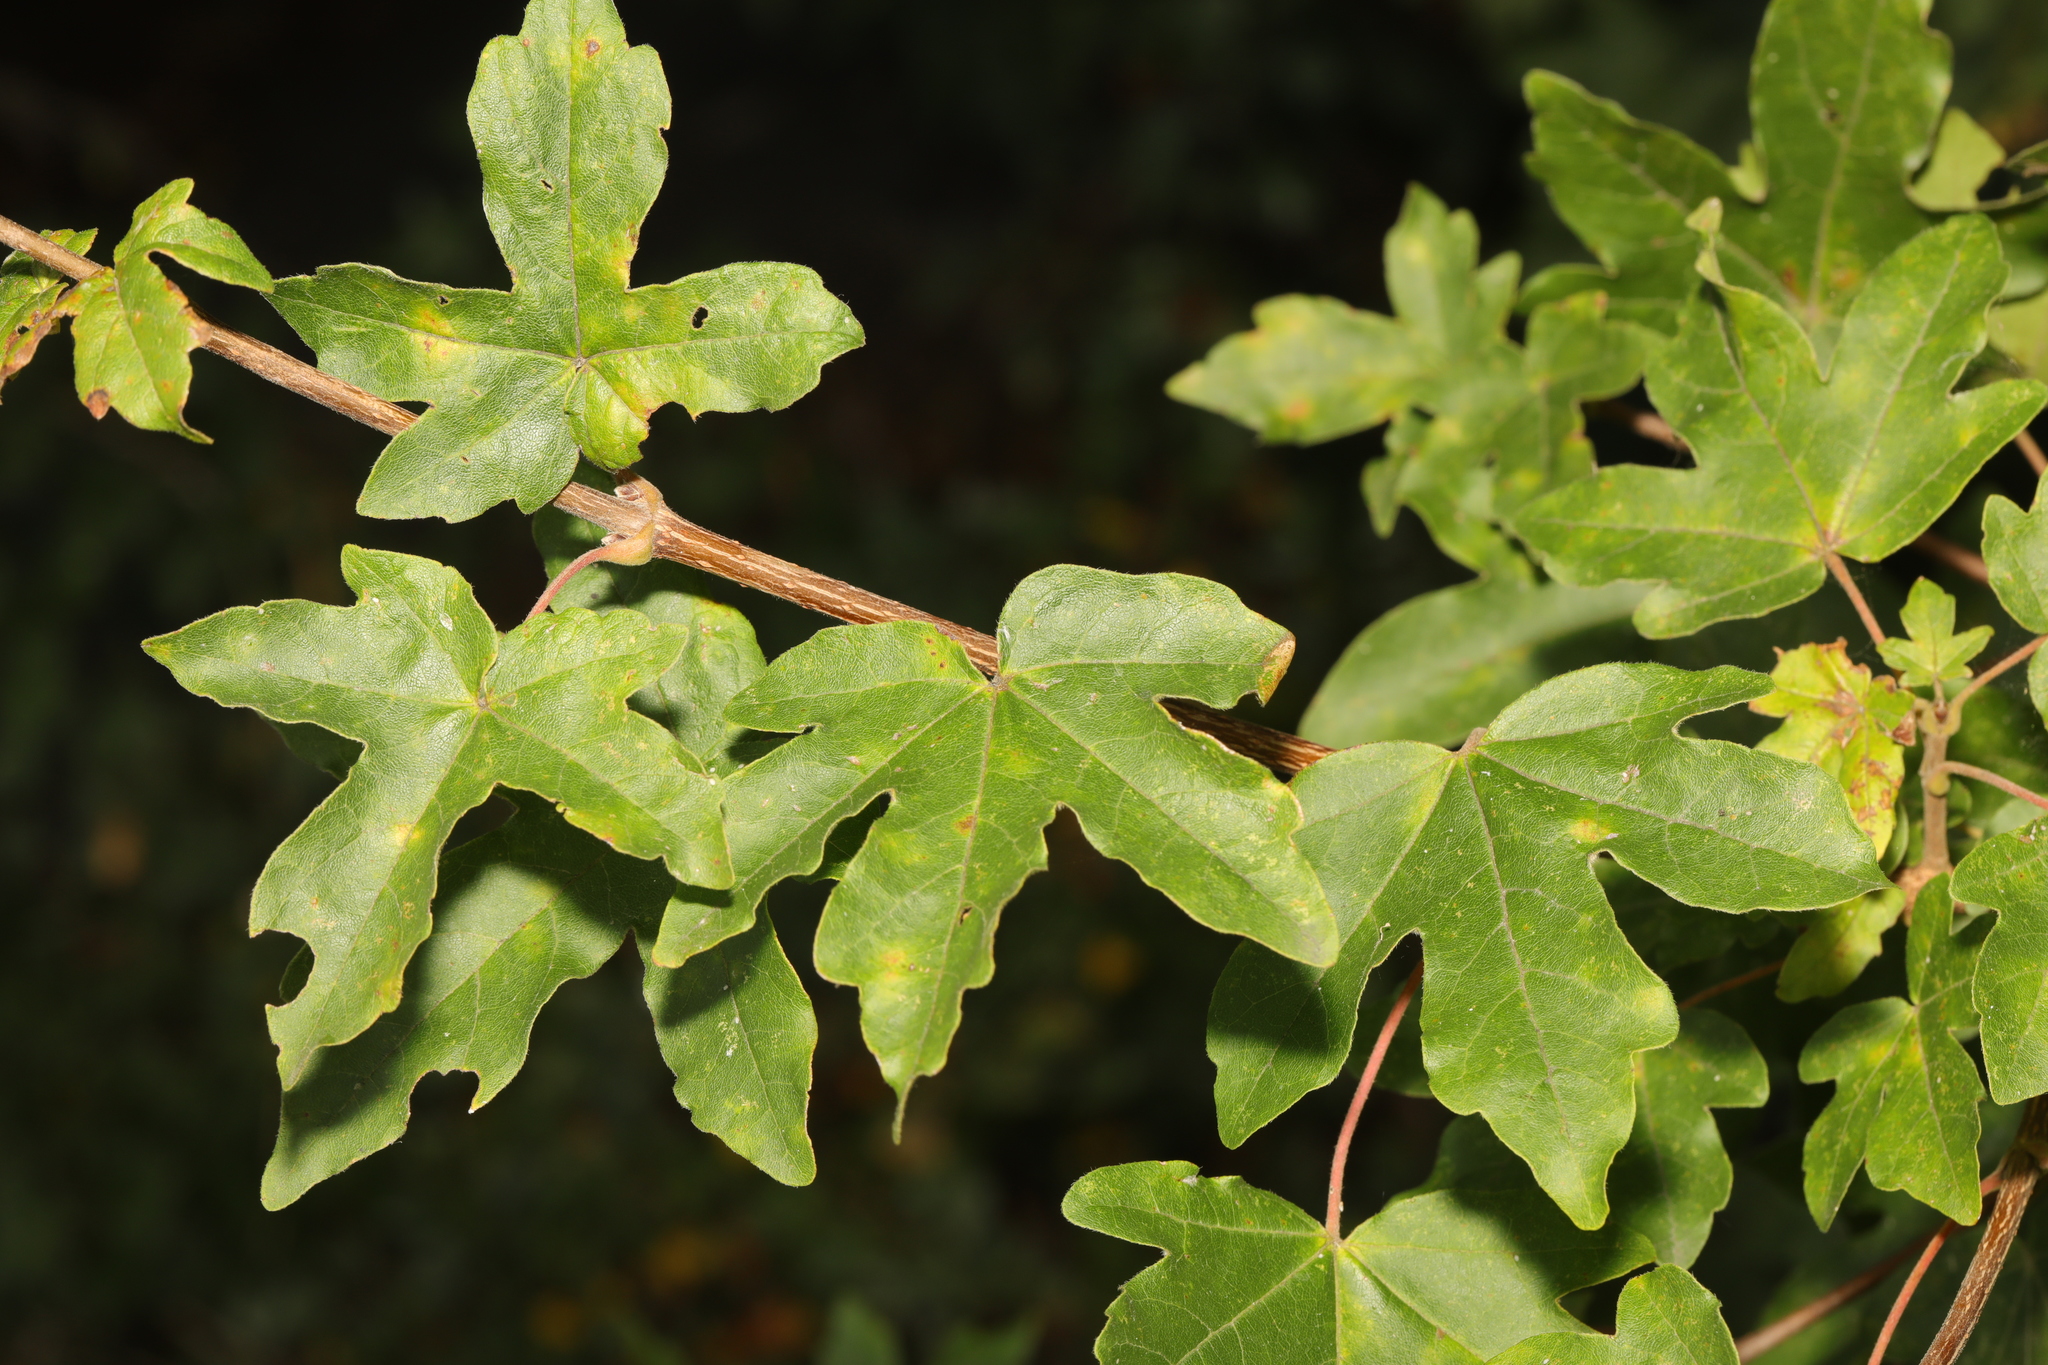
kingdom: Plantae
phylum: Tracheophyta
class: Magnoliopsida
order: Sapindales
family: Sapindaceae
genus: Acer
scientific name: Acer campestre
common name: Field maple
